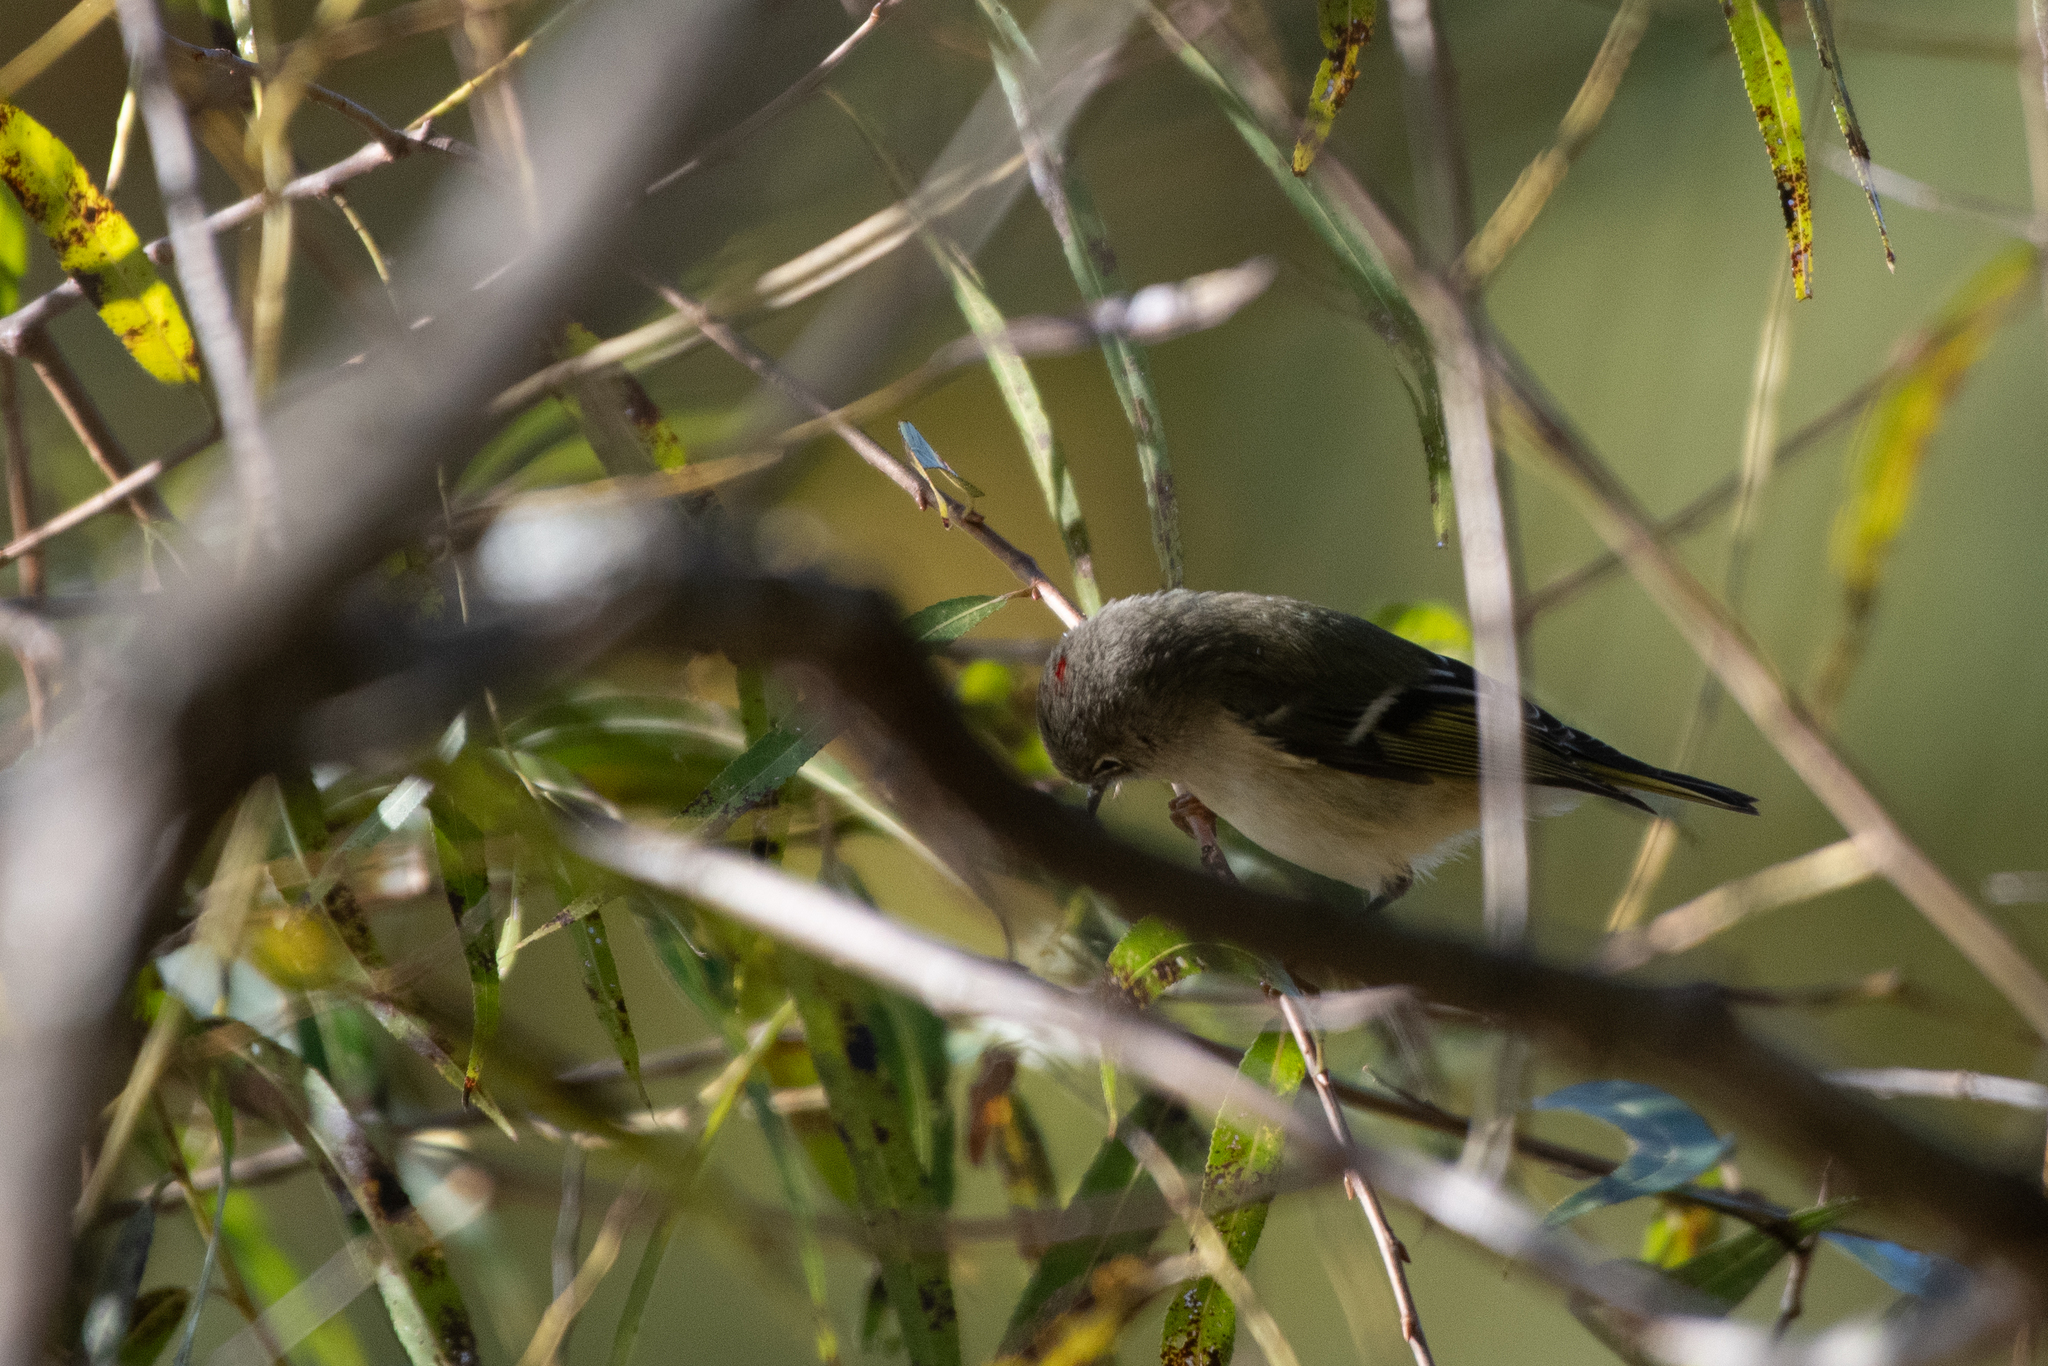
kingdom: Animalia
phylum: Chordata
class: Aves
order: Passeriformes
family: Regulidae
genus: Regulus
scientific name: Regulus calendula
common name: Ruby-crowned kinglet
